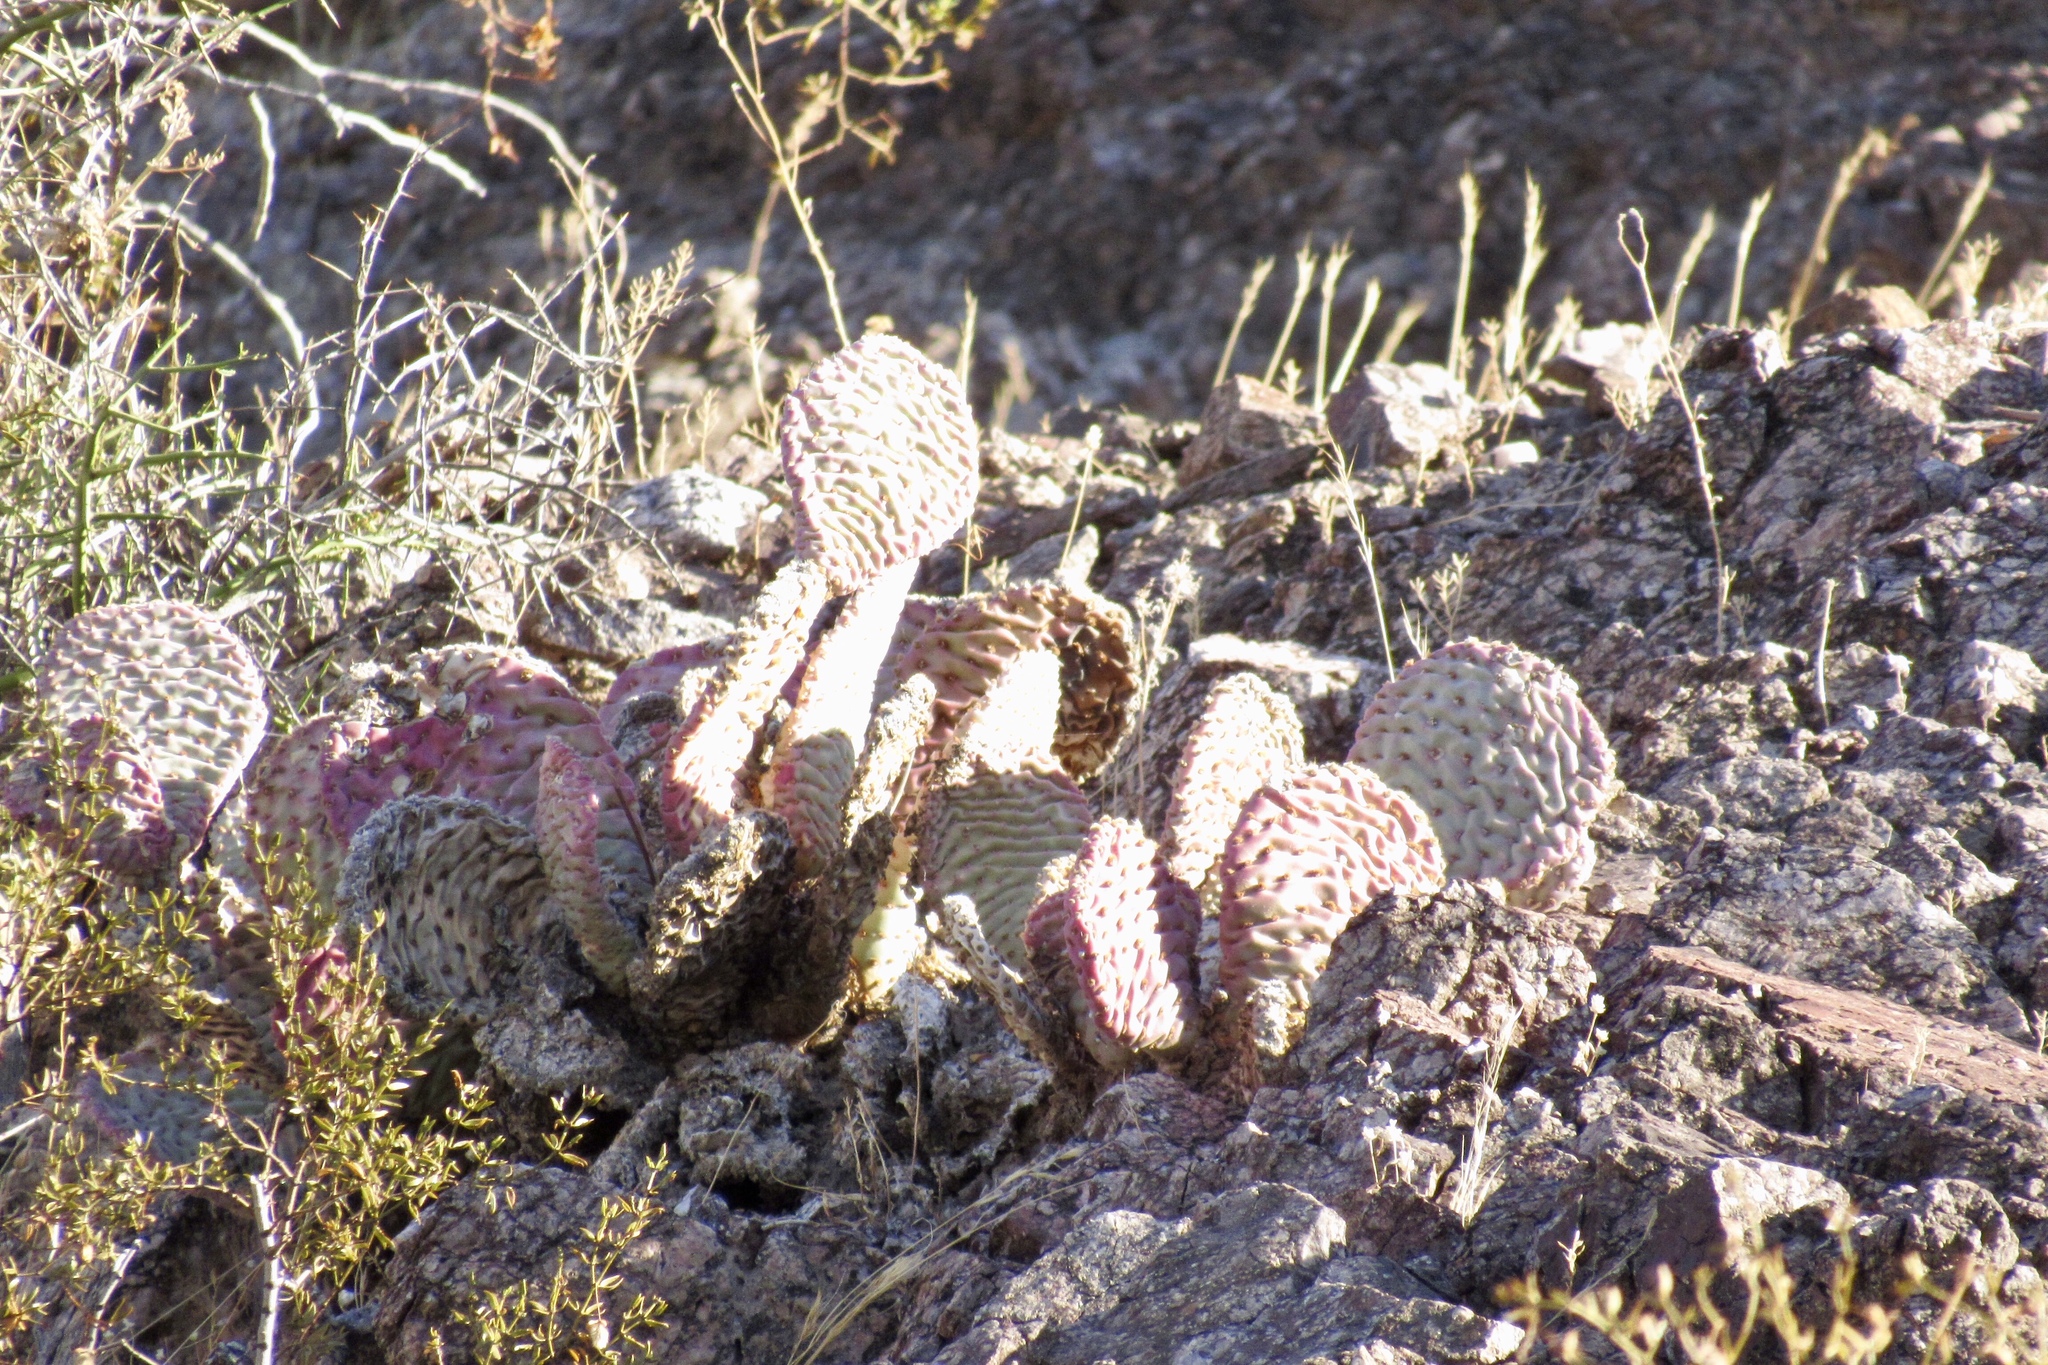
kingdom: Plantae
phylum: Tracheophyta
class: Magnoliopsida
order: Caryophyllales
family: Cactaceae
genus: Opuntia
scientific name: Opuntia basilaris
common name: Beavertail prickly-pear
